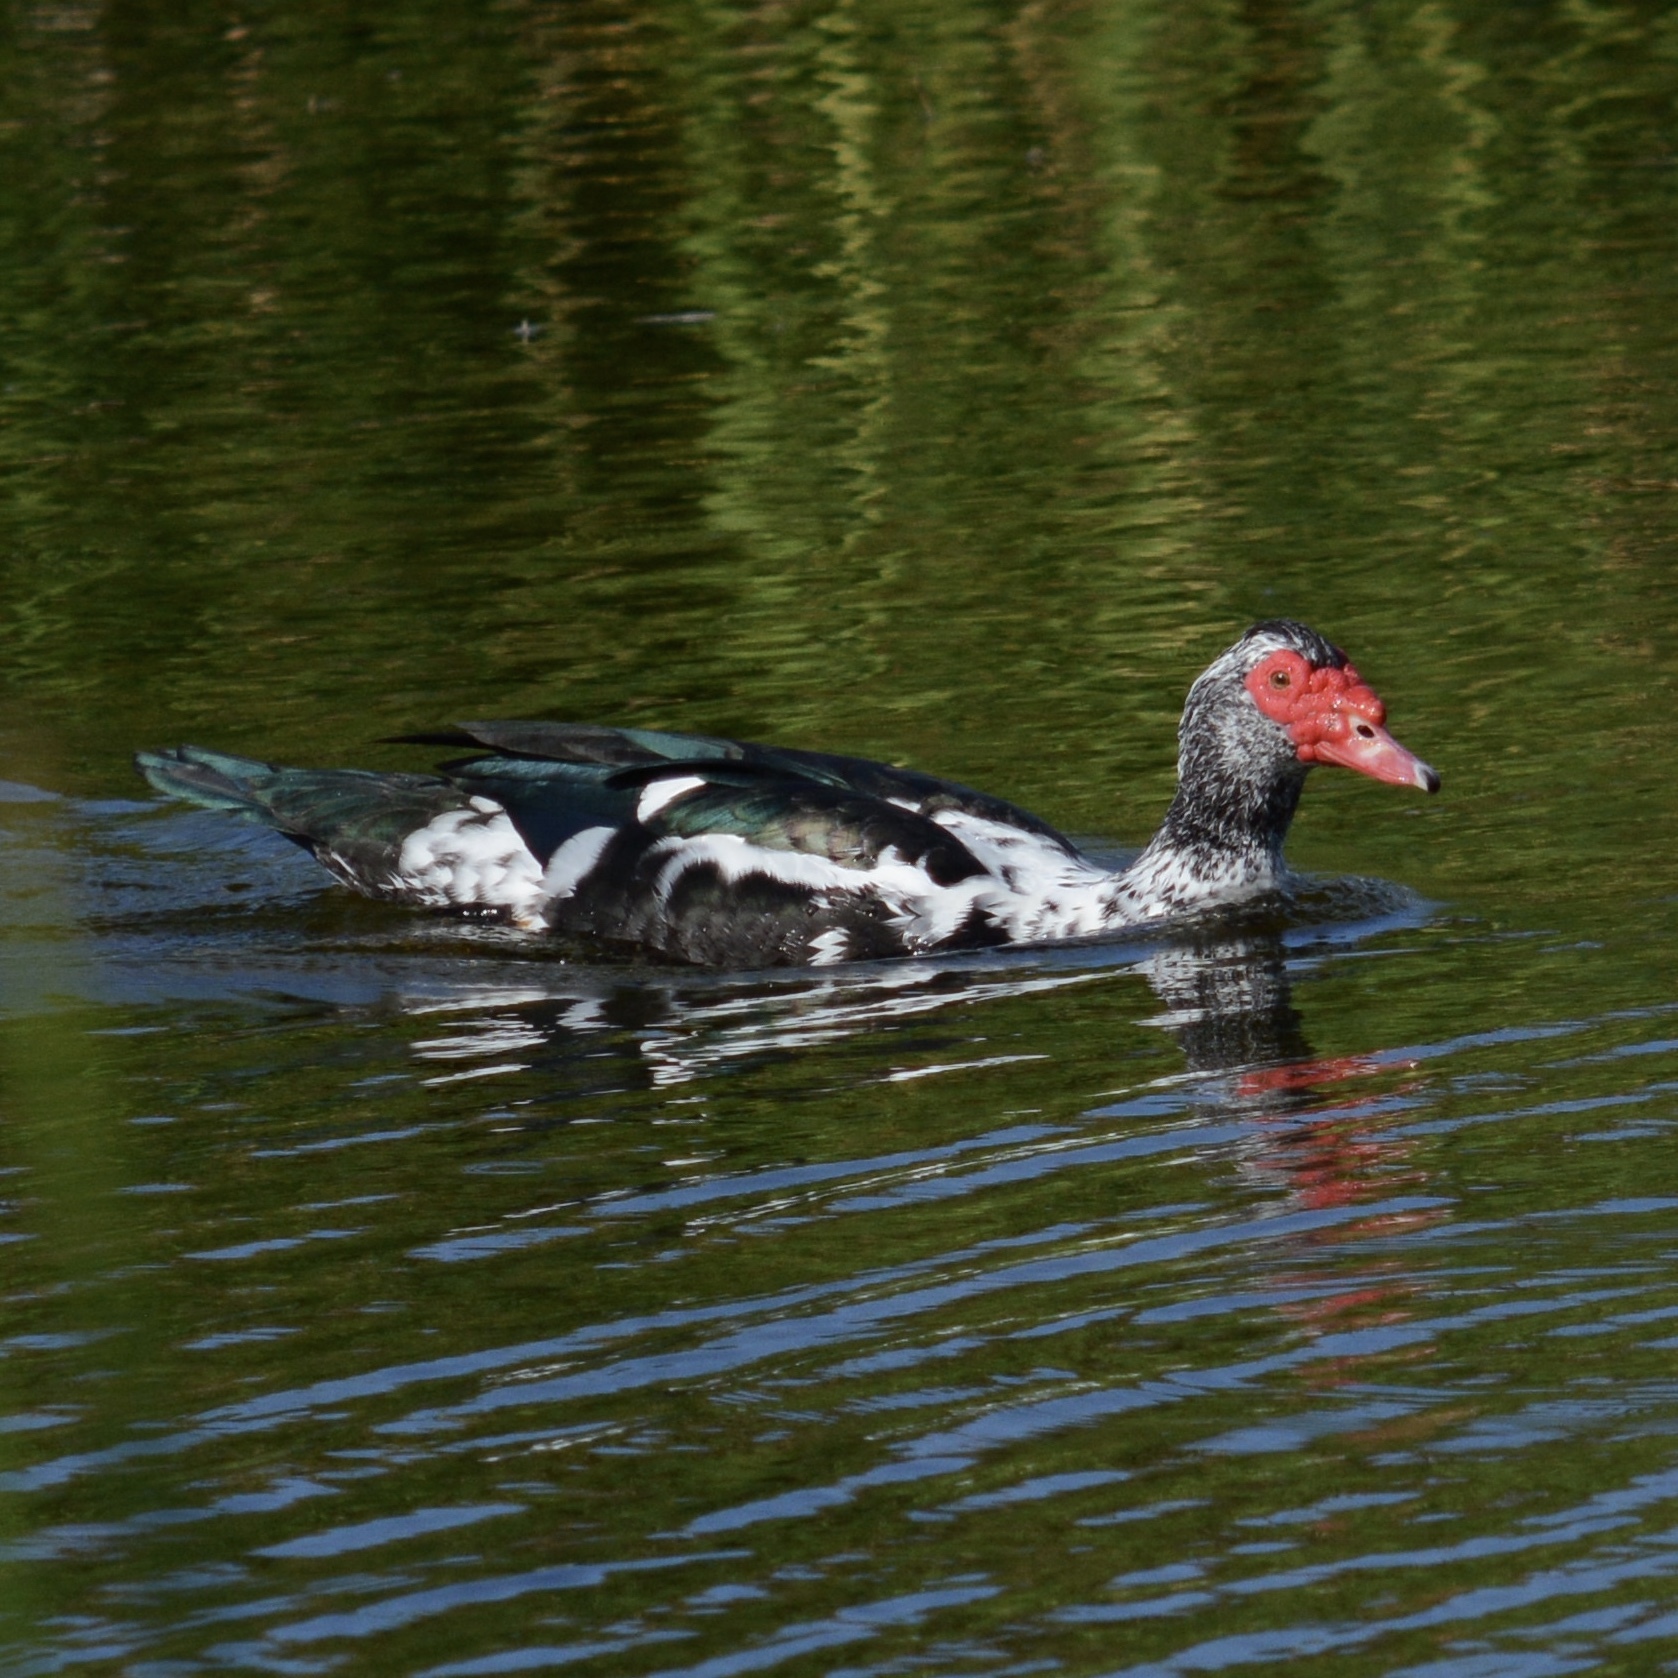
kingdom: Animalia
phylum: Chordata
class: Aves
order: Anseriformes
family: Anatidae
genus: Cairina
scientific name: Cairina moschata
